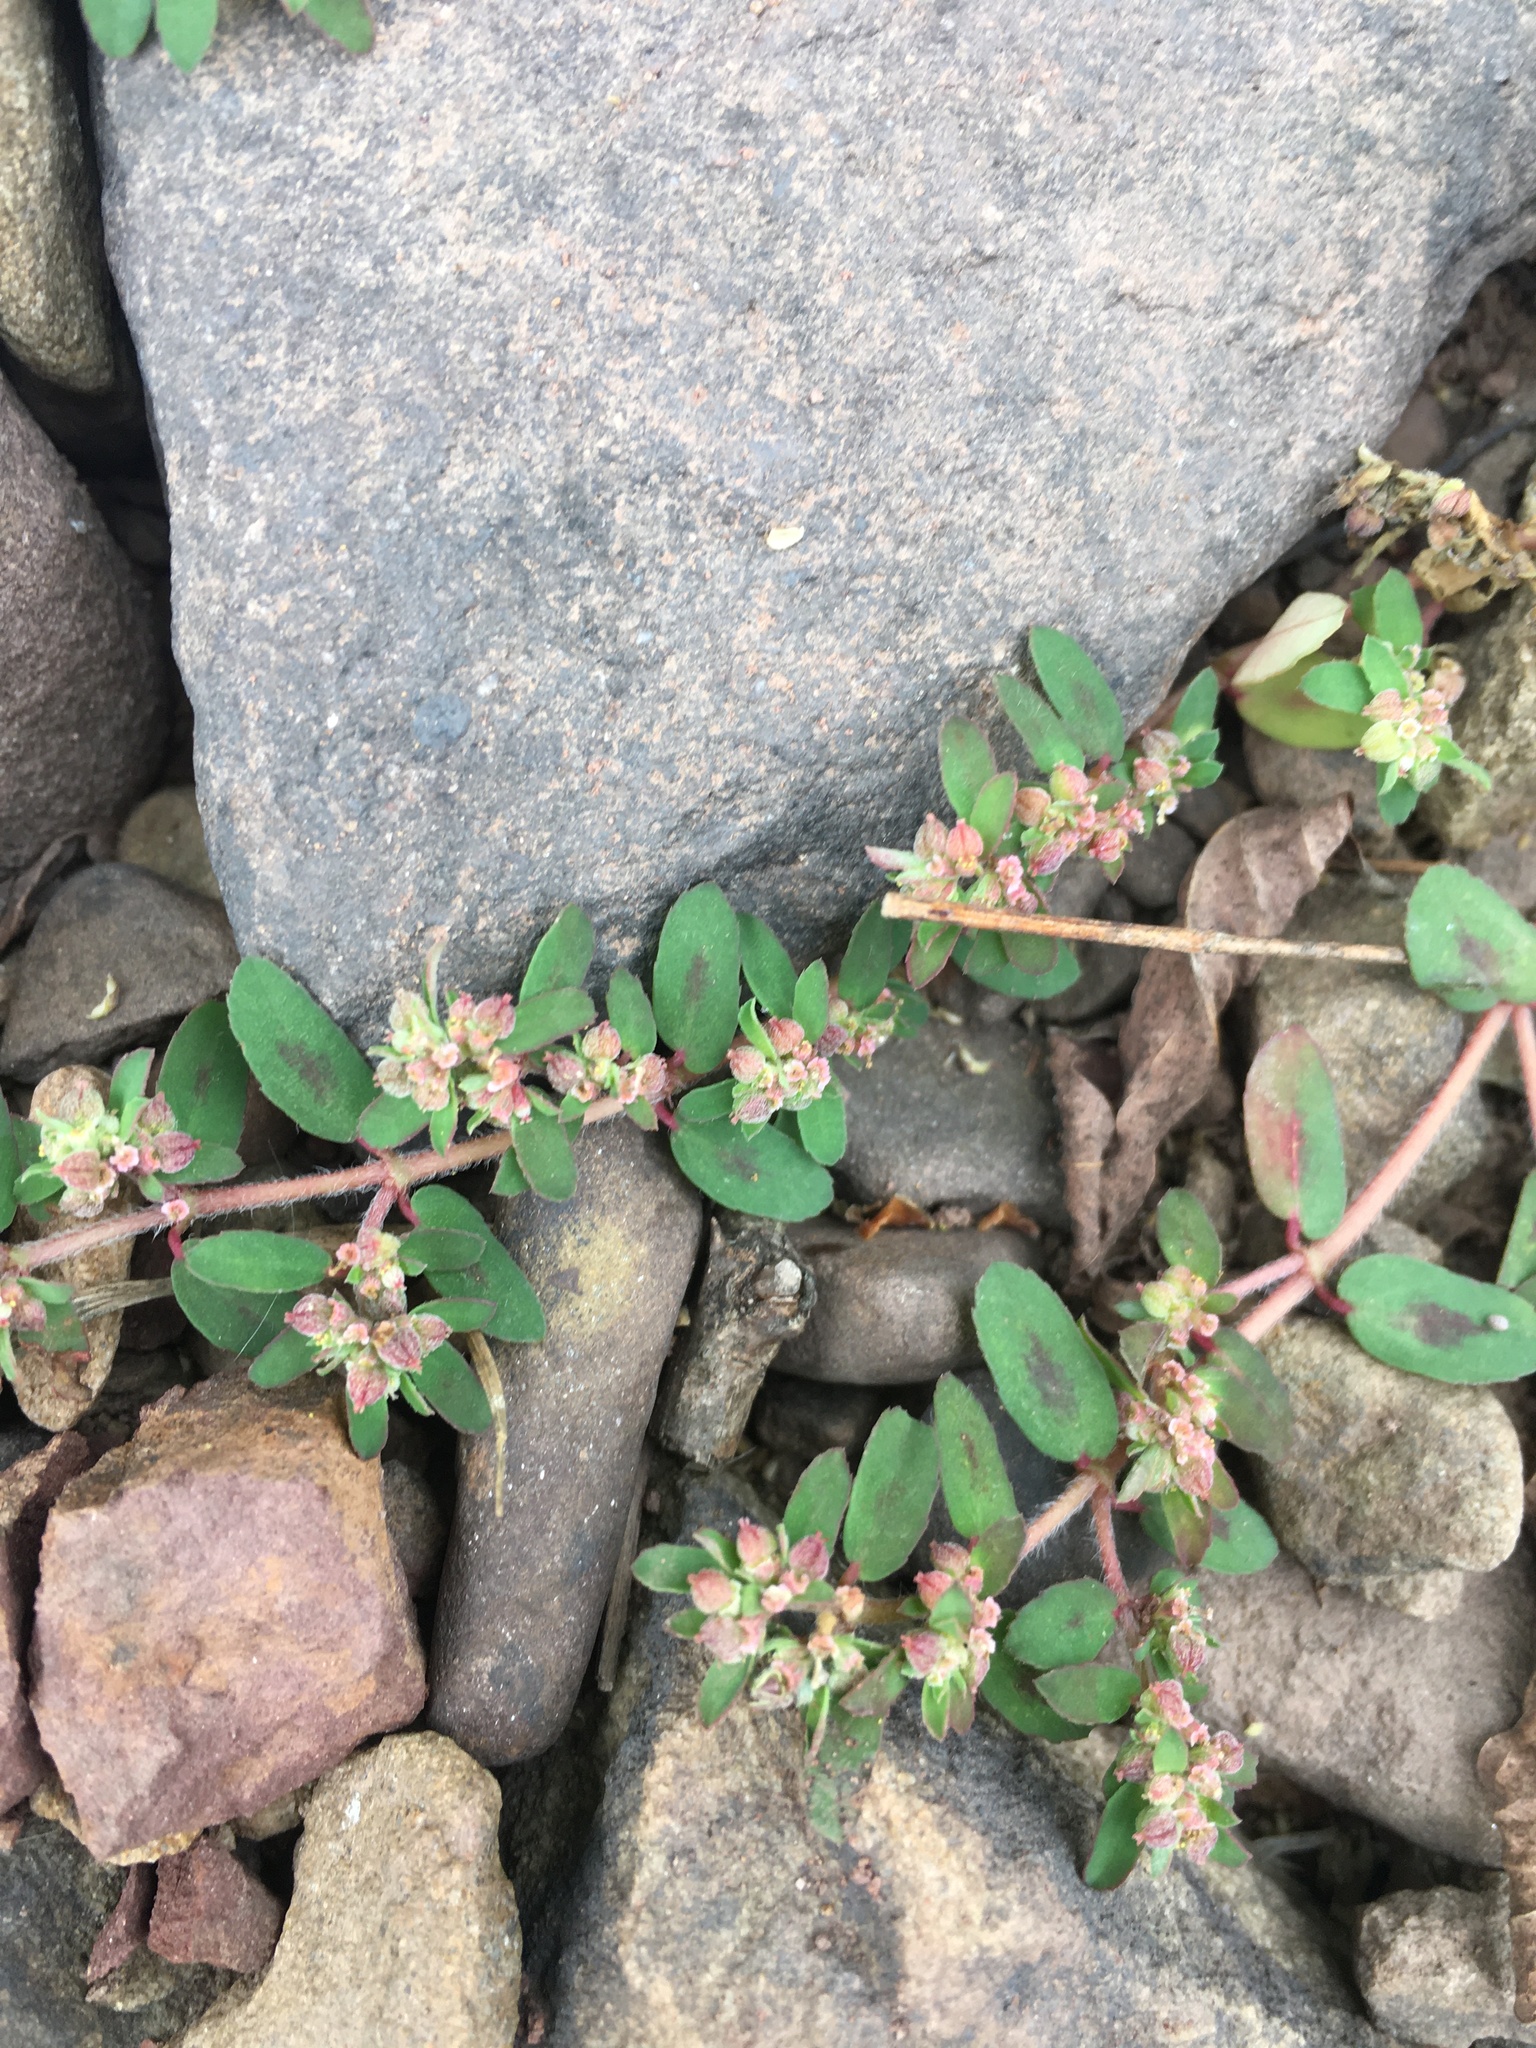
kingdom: Plantae
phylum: Tracheophyta
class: Magnoliopsida
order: Malpighiales
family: Euphorbiaceae
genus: Euphorbia
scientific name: Euphorbia maculata
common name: Spotted spurge
